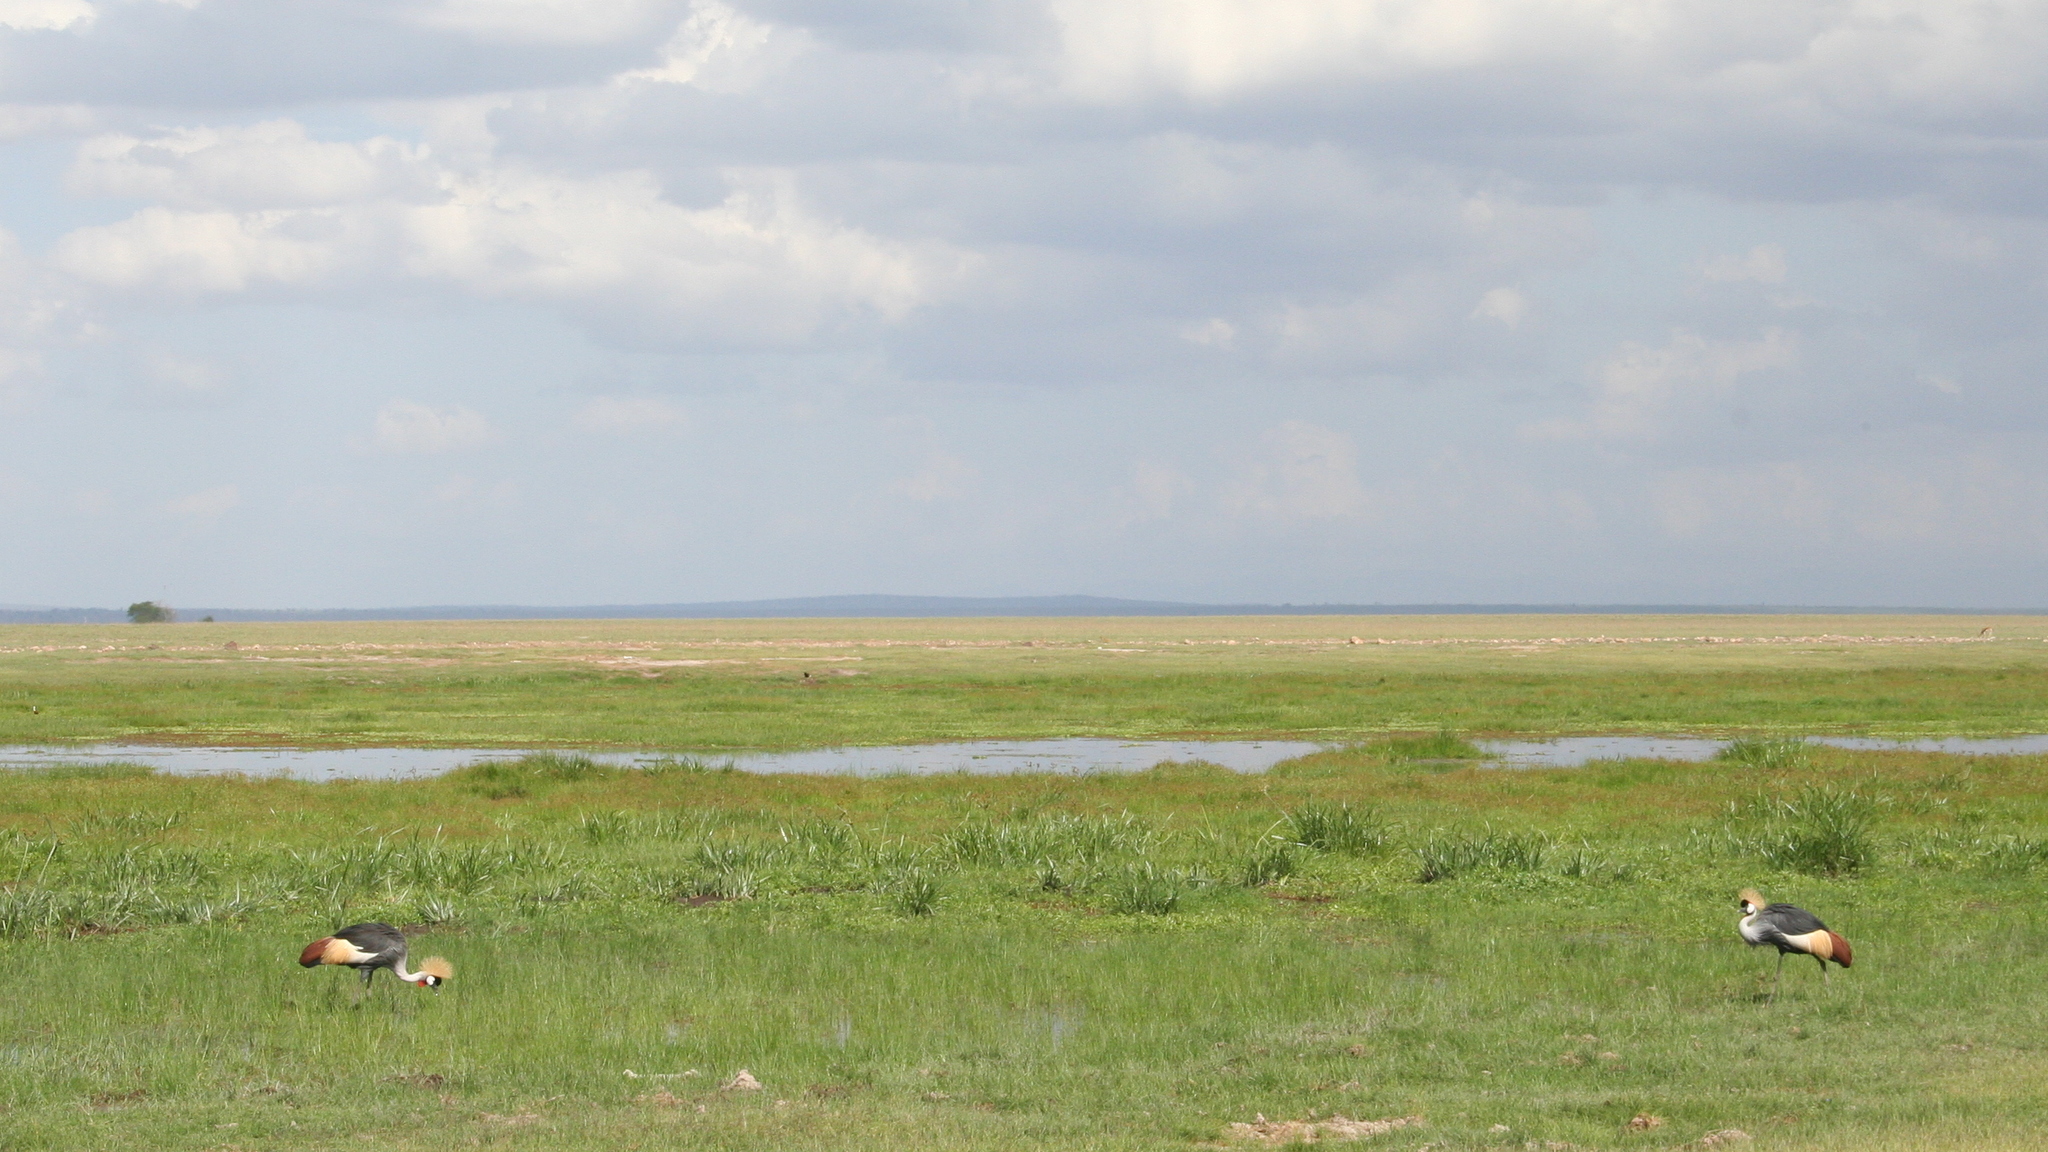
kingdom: Animalia
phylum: Chordata
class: Aves
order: Gruiformes
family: Gruidae
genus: Balearica
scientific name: Balearica regulorum
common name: Grey crowned crane
